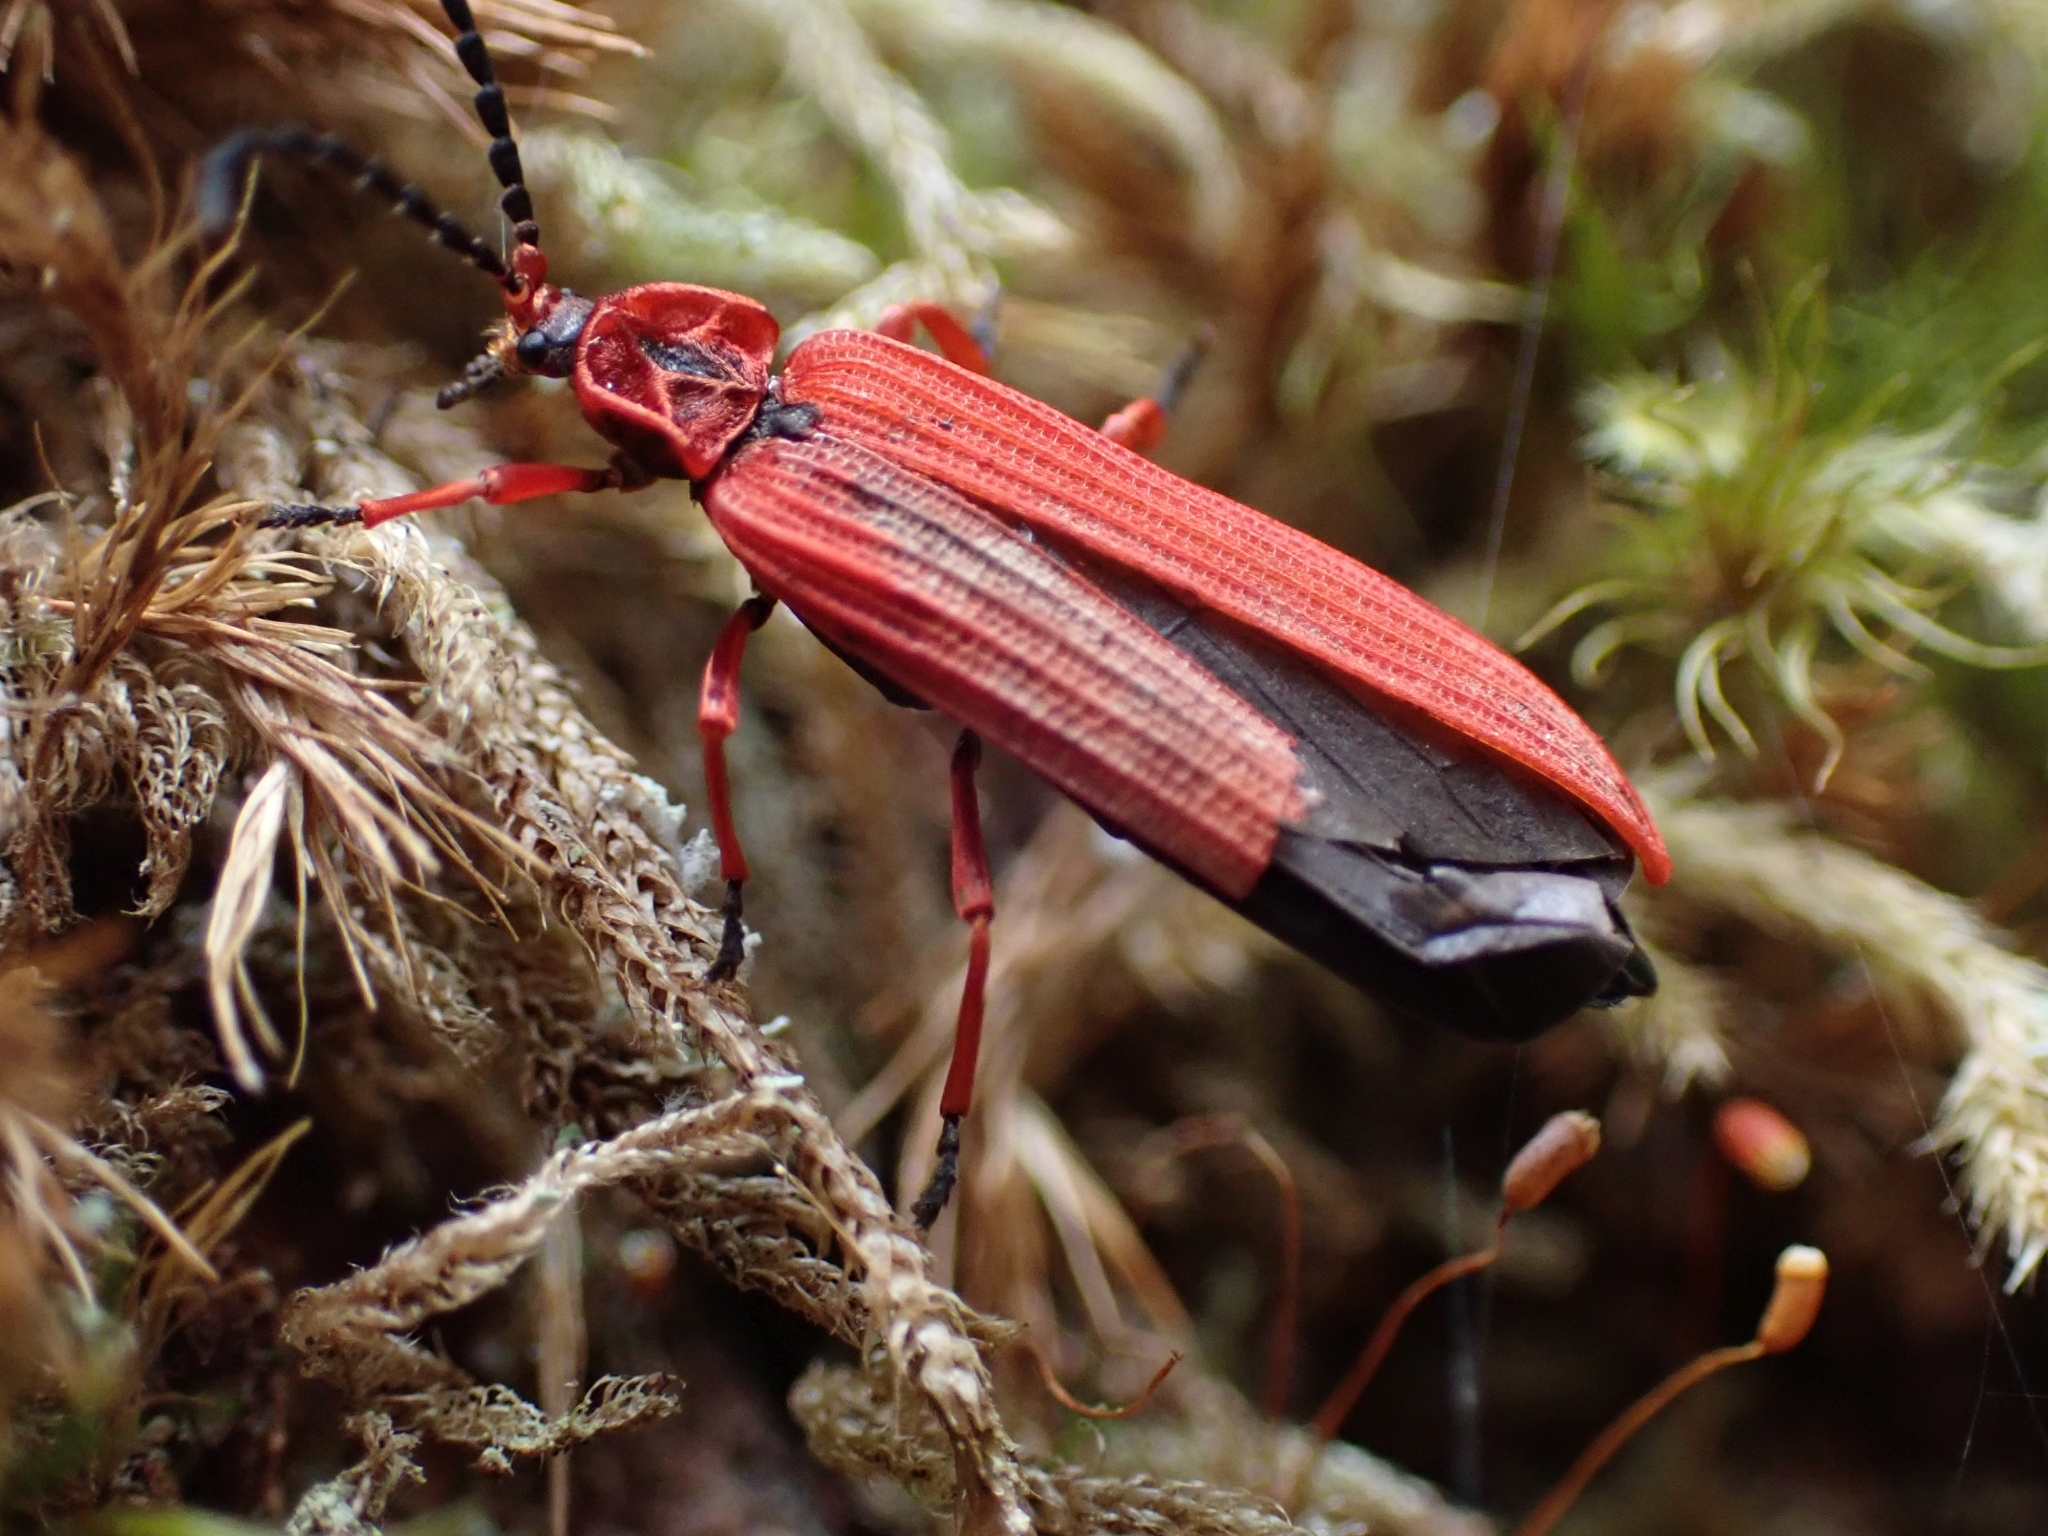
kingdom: Animalia
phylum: Arthropoda
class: Insecta
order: Coleoptera
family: Lycidae
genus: Dictyoptera
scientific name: Dictyoptera simplicipes
